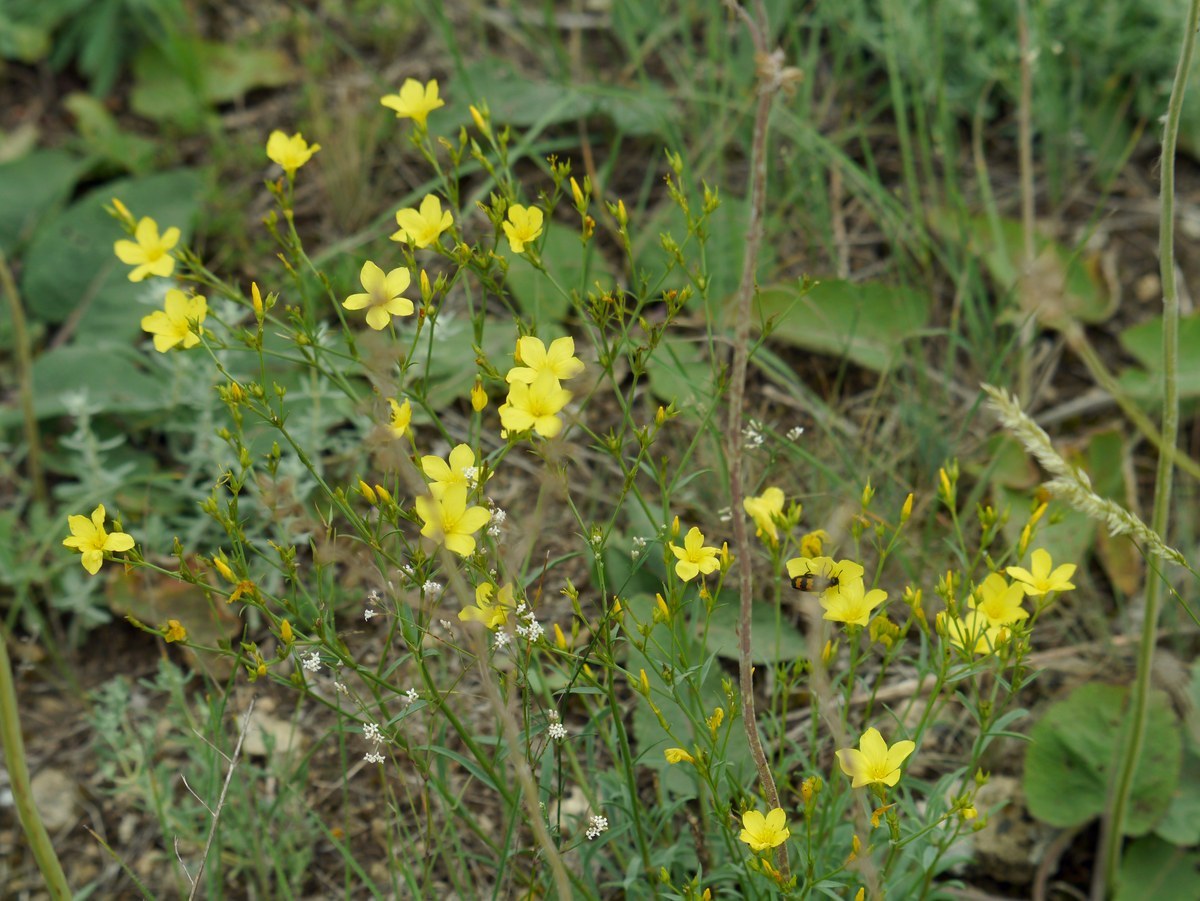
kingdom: Plantae
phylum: Tracheophyta
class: Magnoliopsida
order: Malpighiales
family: Linaceae
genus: Linum
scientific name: Linum tauricum
